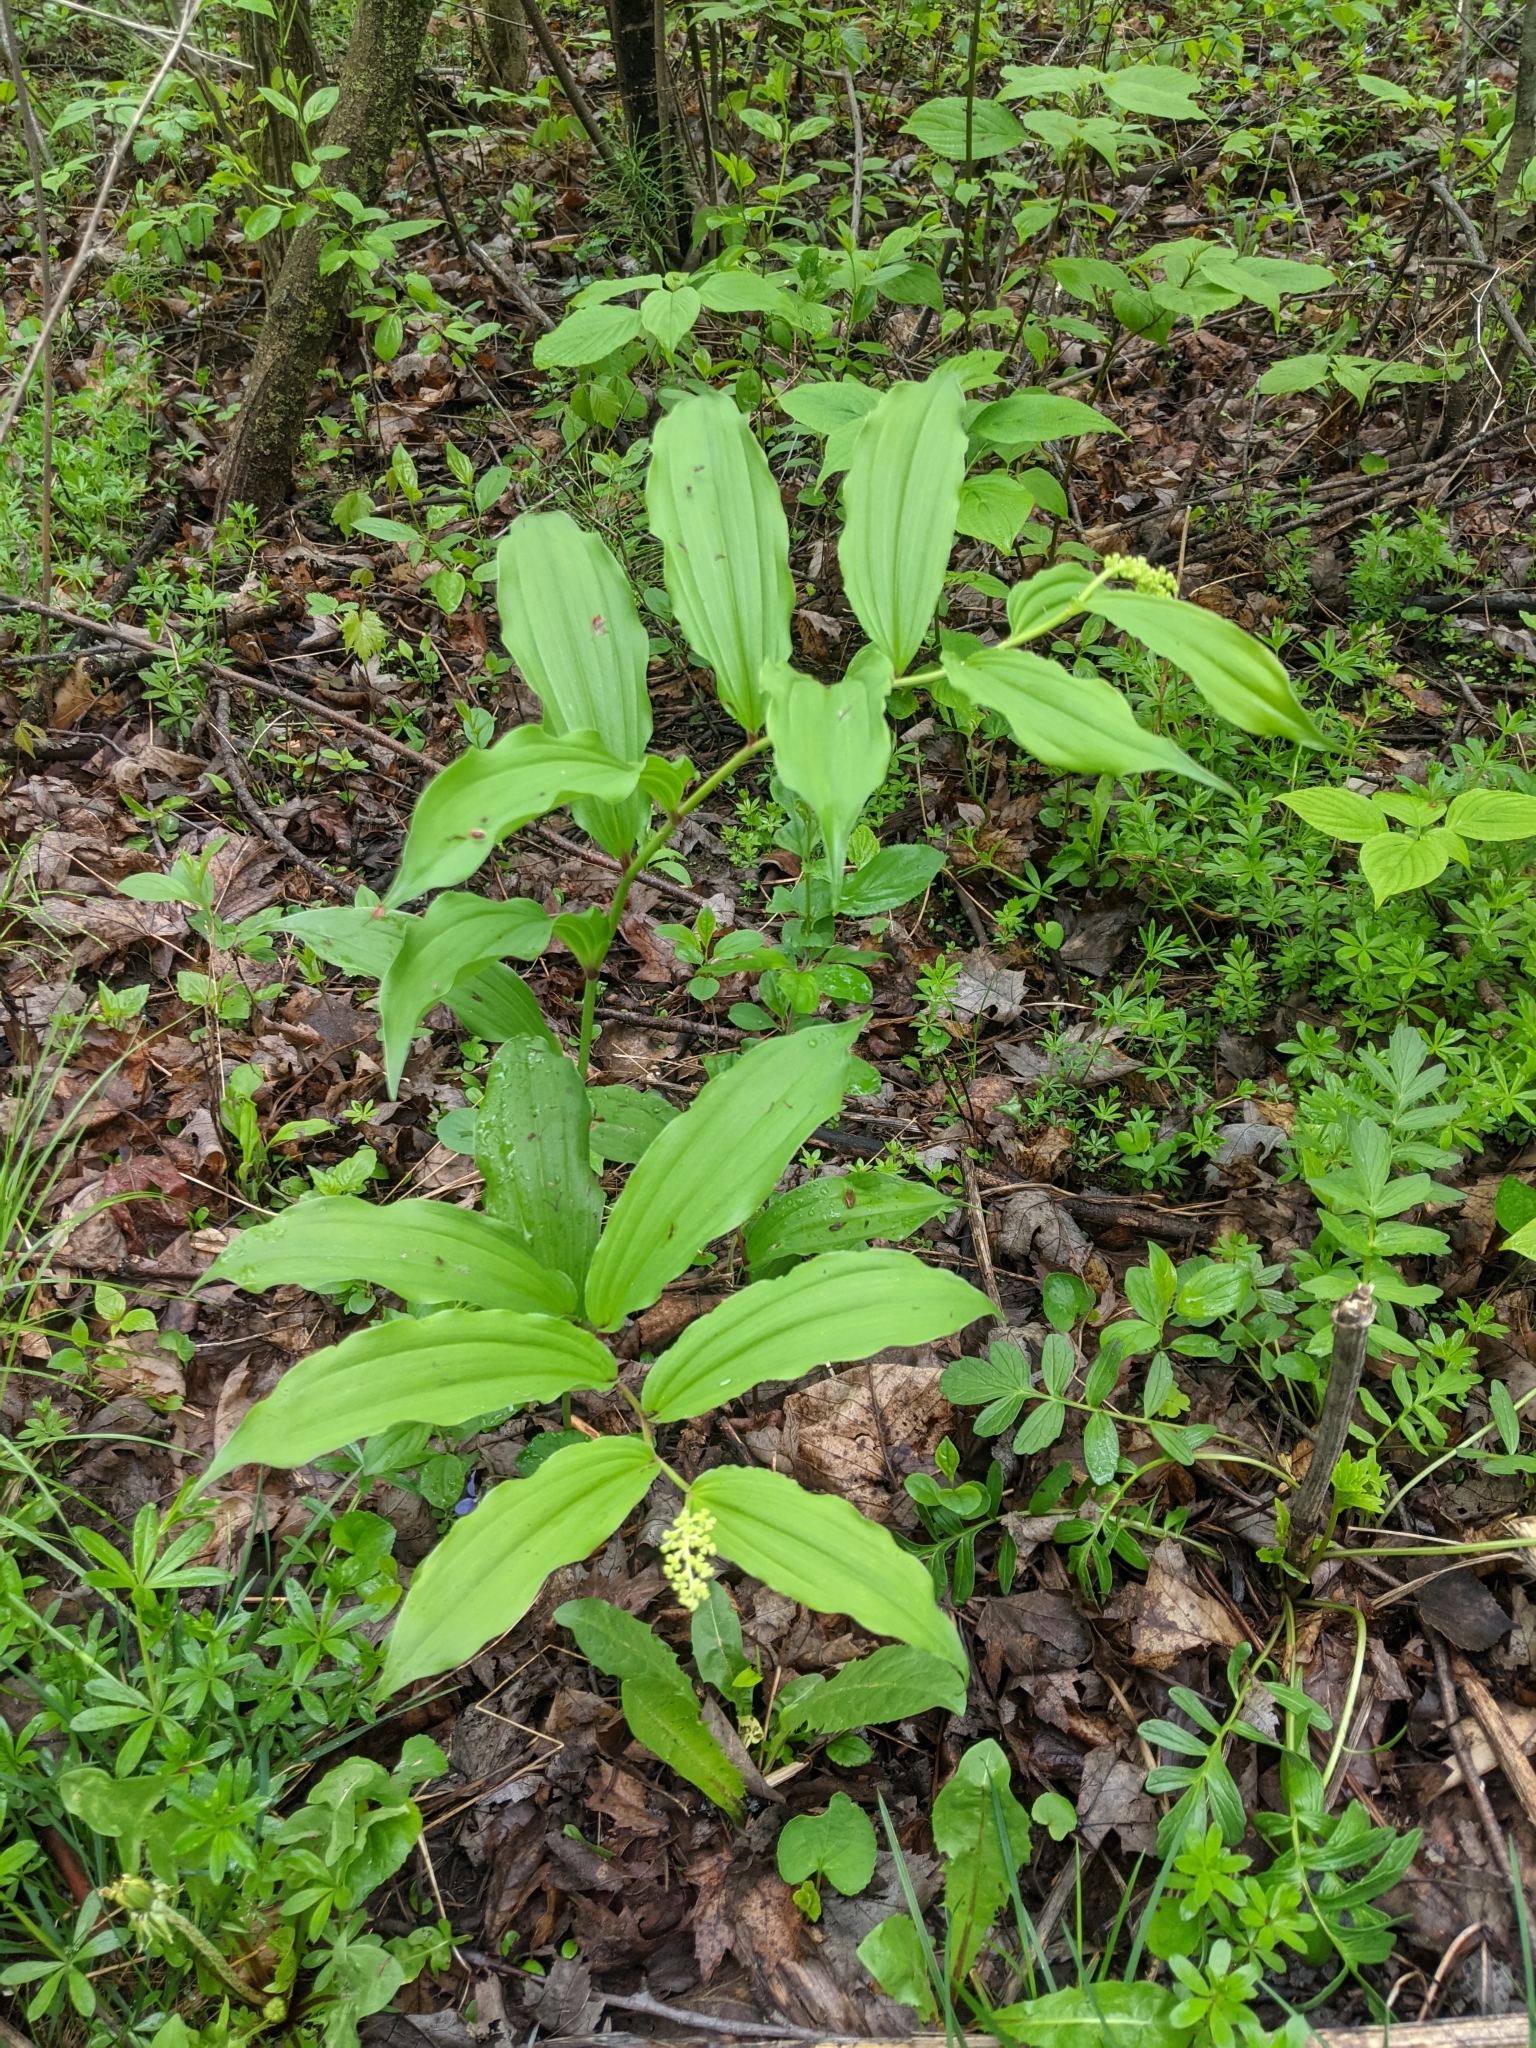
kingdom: Plantae
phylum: Tracheophyta
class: Liliopsida
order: Asparagales
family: Asparagaceae
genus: Maianthemum
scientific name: Maianthemum racemosum
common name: False spikenard
